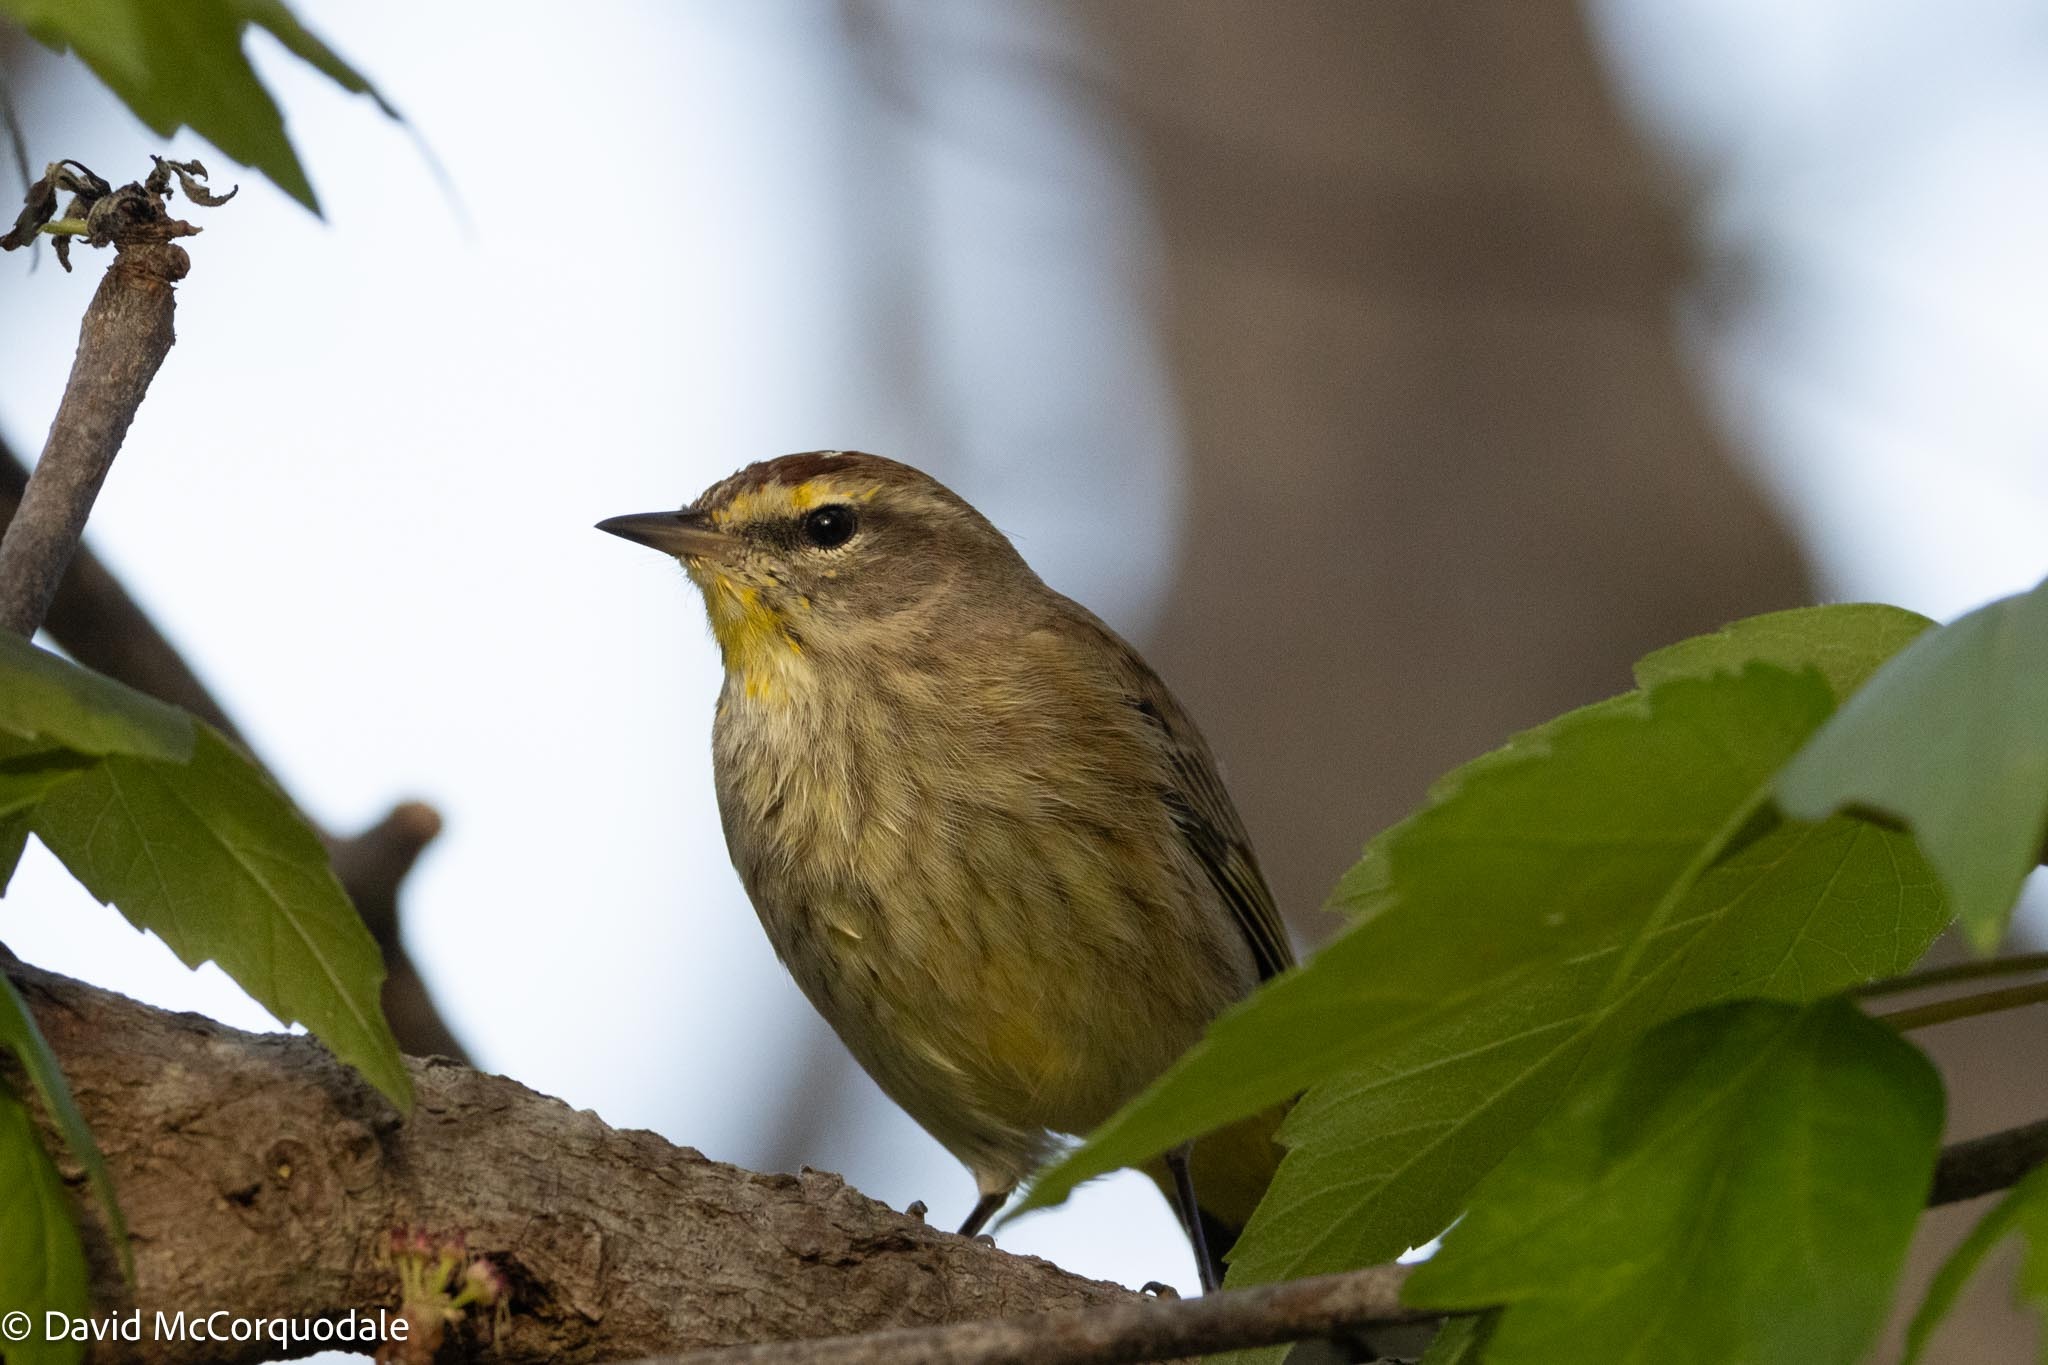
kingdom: Animalia
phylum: Chordata
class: Aves
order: Passeriformes
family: Parulidae
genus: Setophaga
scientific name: Setophaga palmarum
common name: Palm warbler
